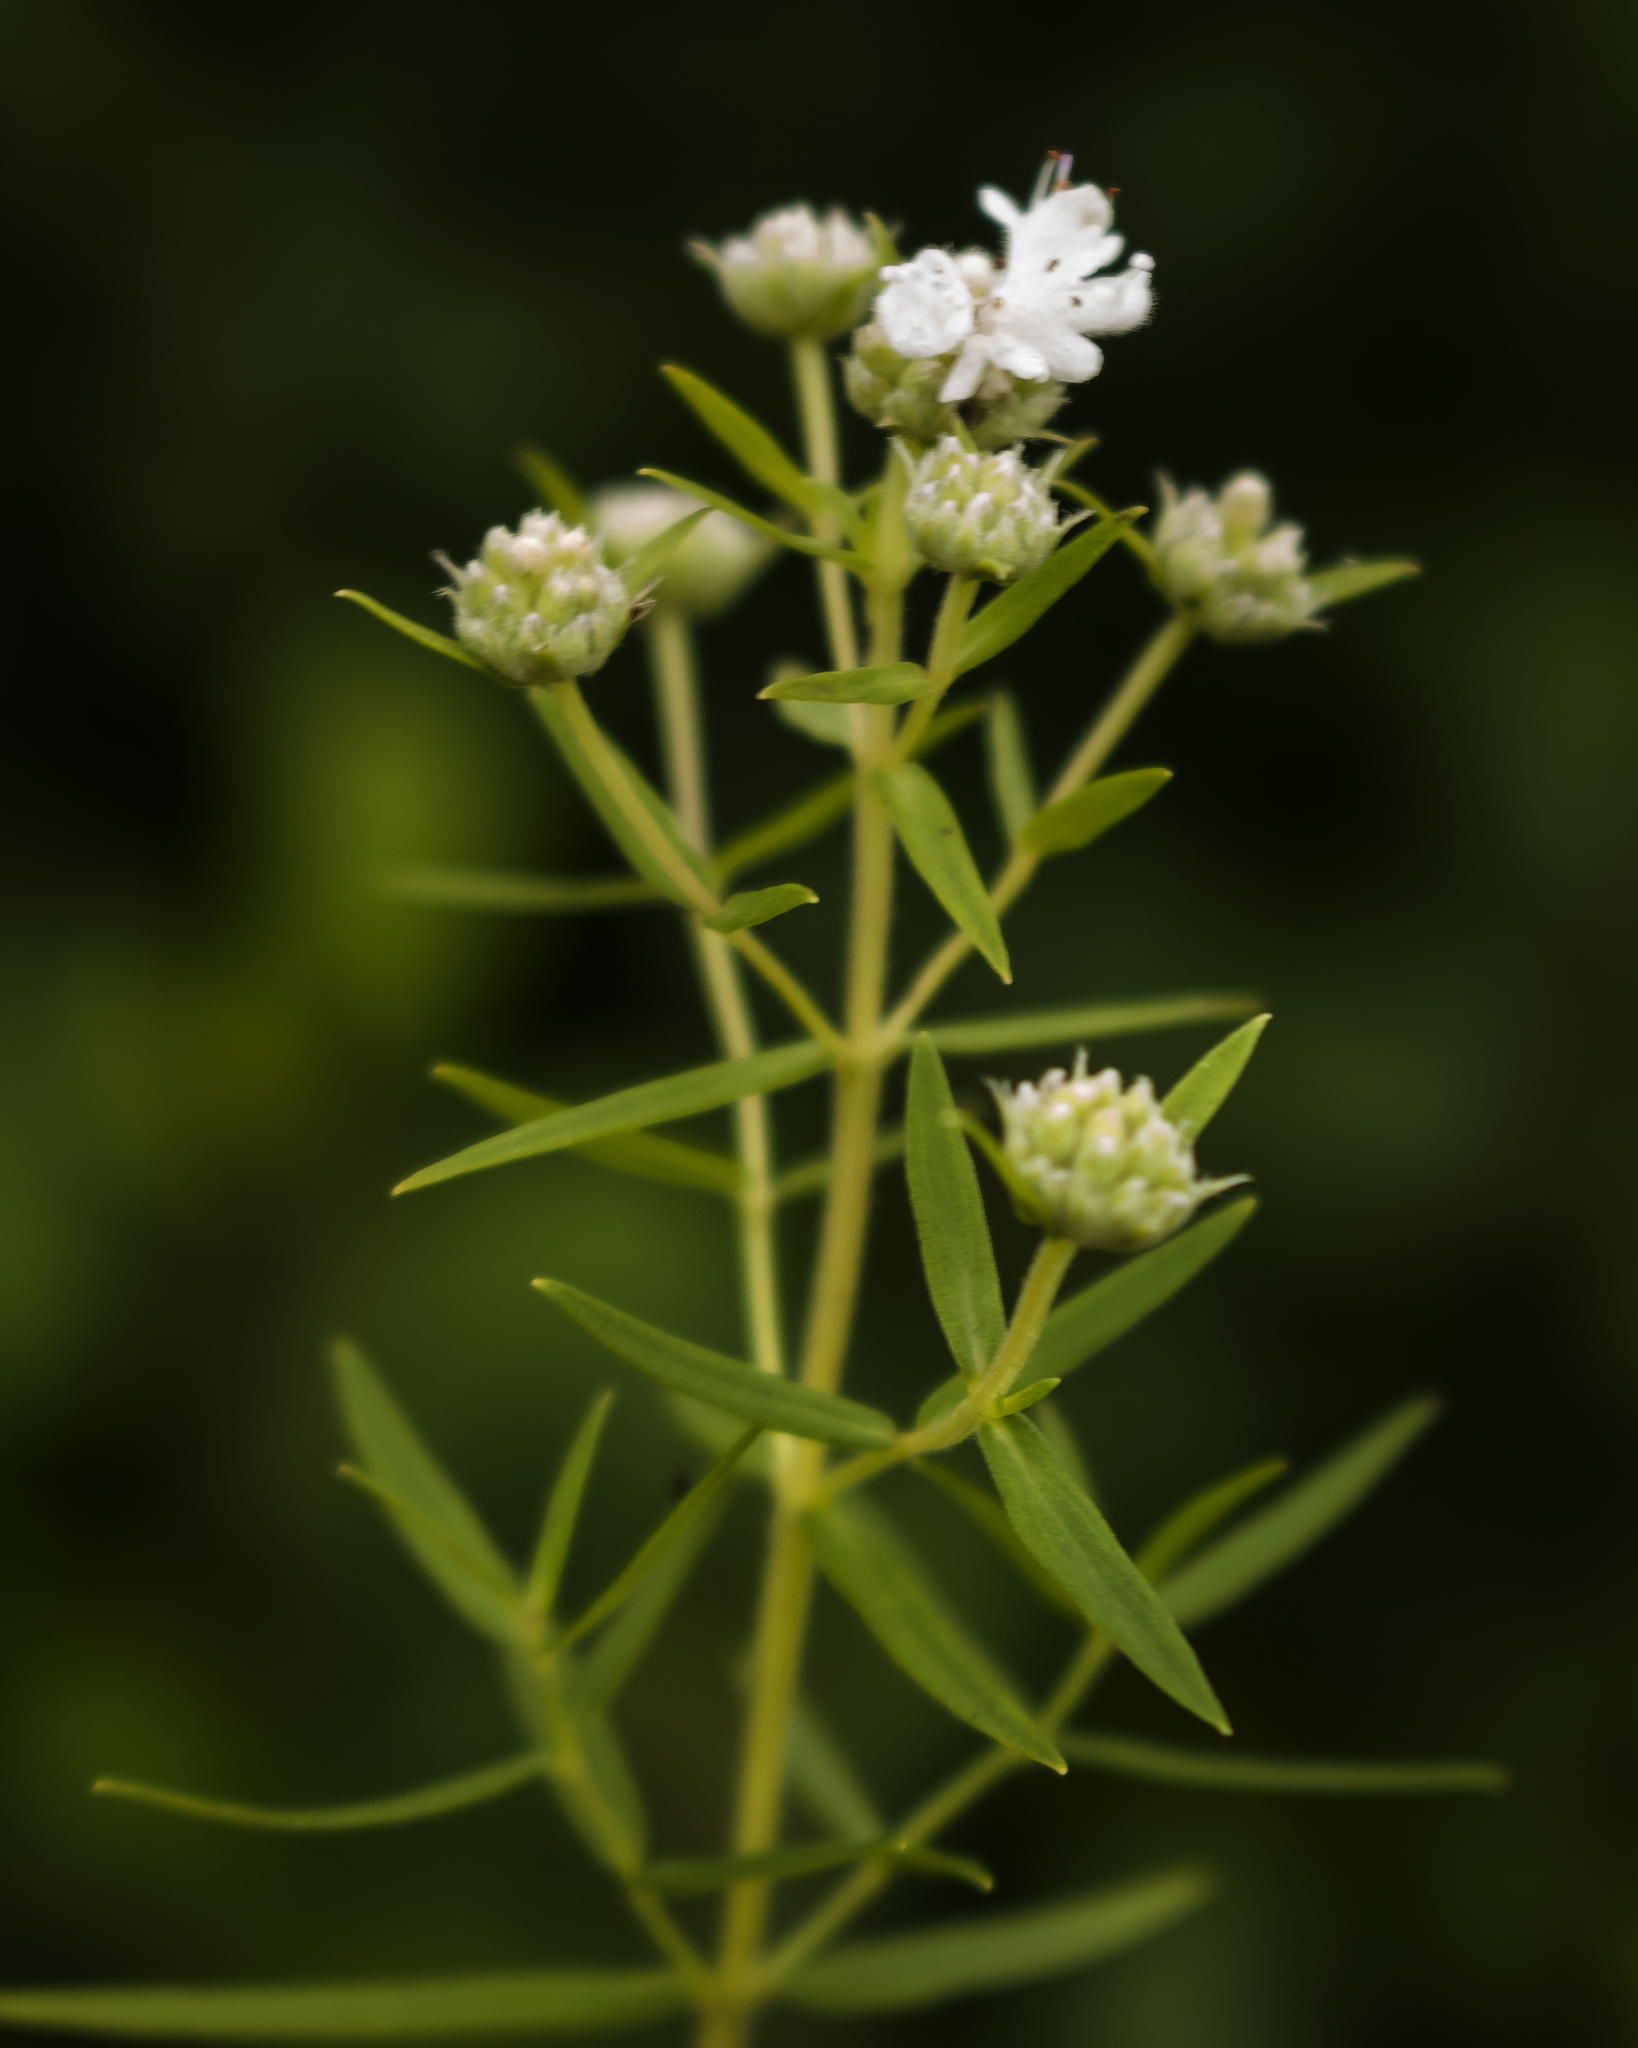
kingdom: Plantae
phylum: Tracheophyta
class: Magnoliopsida
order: Lamiales
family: Lamiaceae
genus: Pycnanthemum
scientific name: Pycnanthemum virginianum
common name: Virginia mountain-mint
